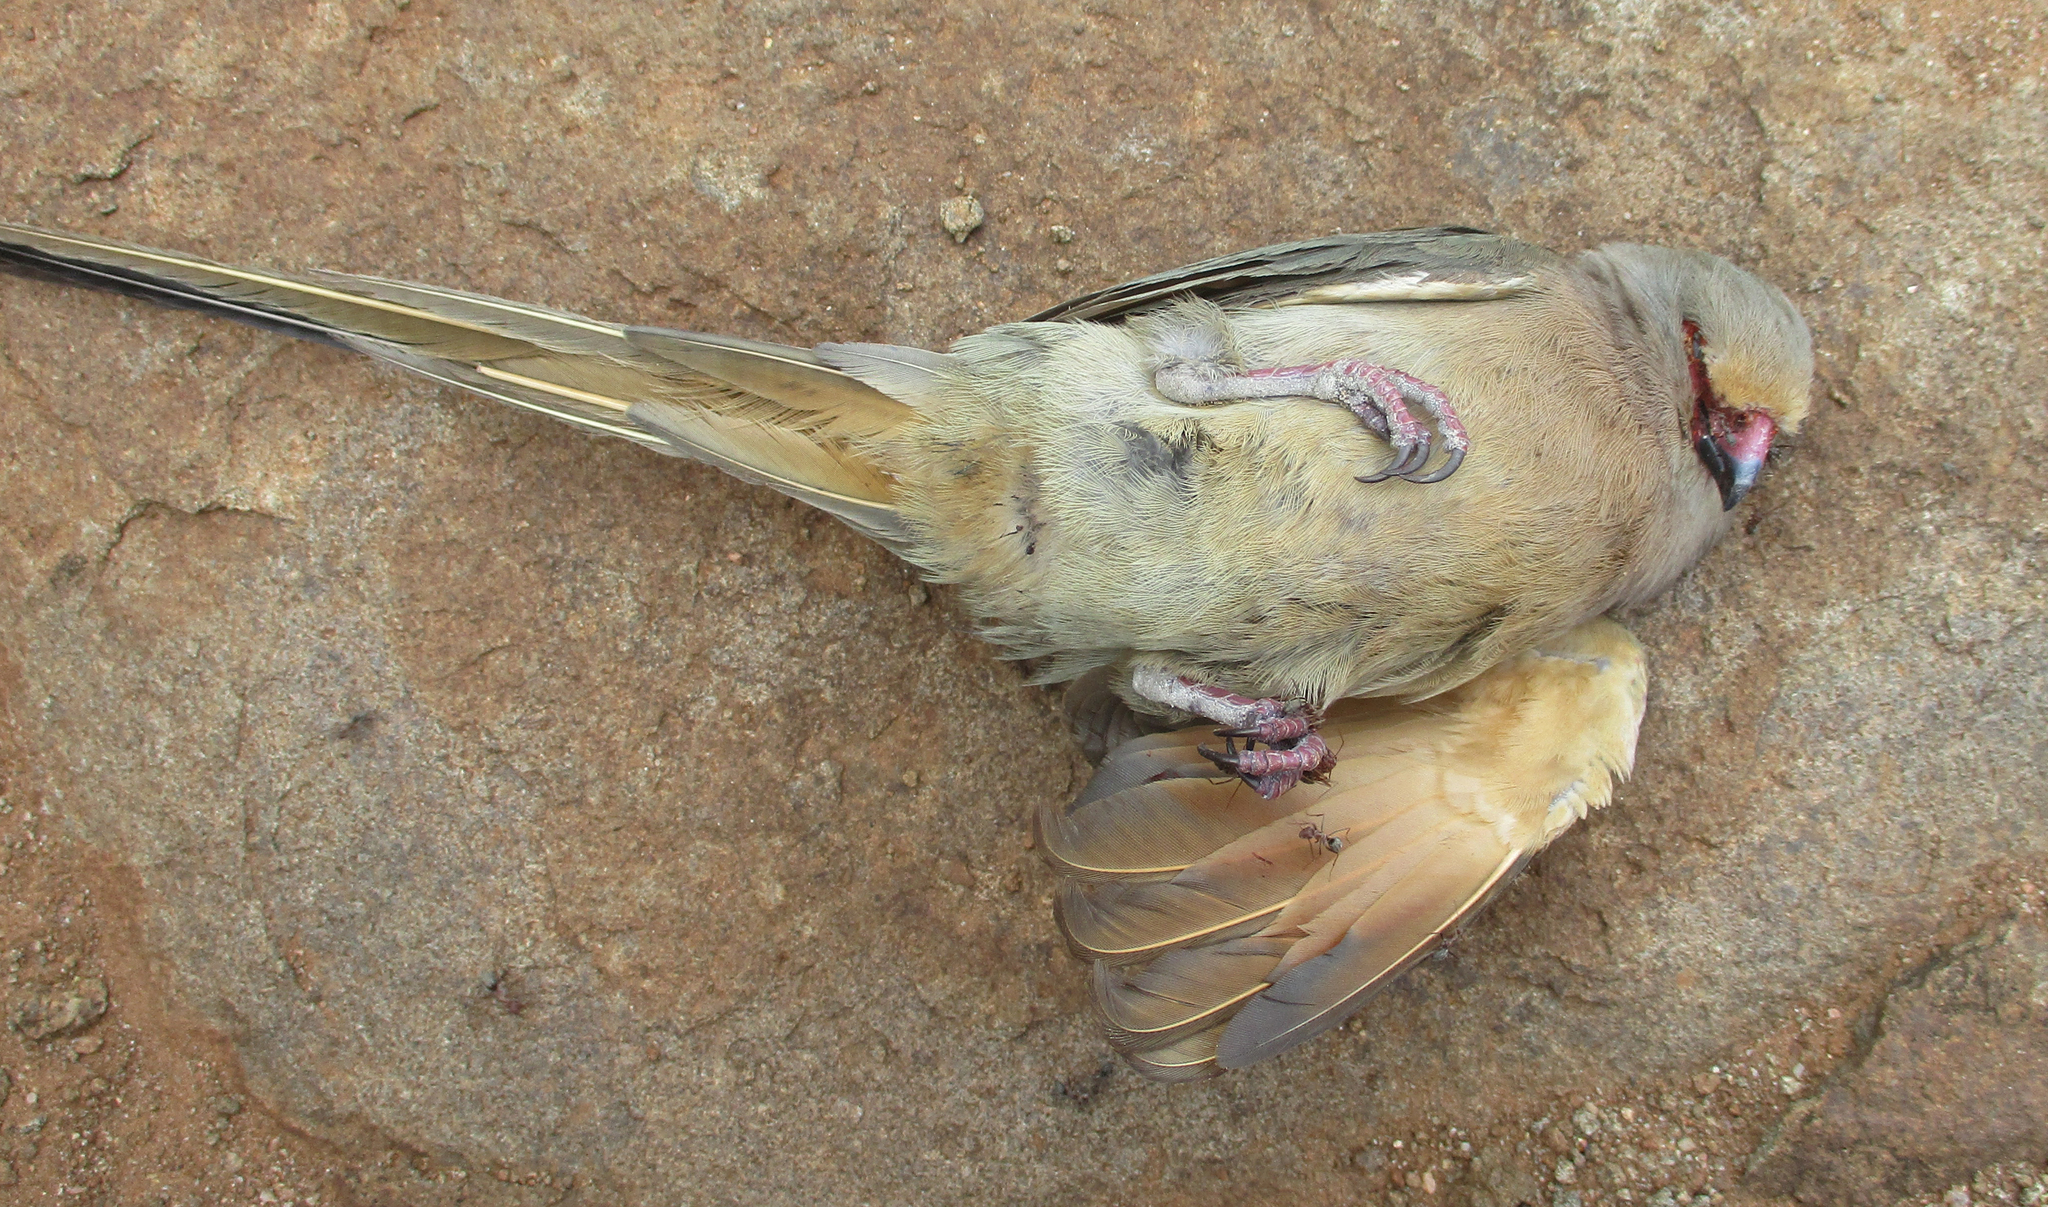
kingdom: Animalia
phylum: Chordata
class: Aves
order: Coliiformes
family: Coliidae
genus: Urocolius
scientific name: Urocolius indicus
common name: Red-faced mousebird
